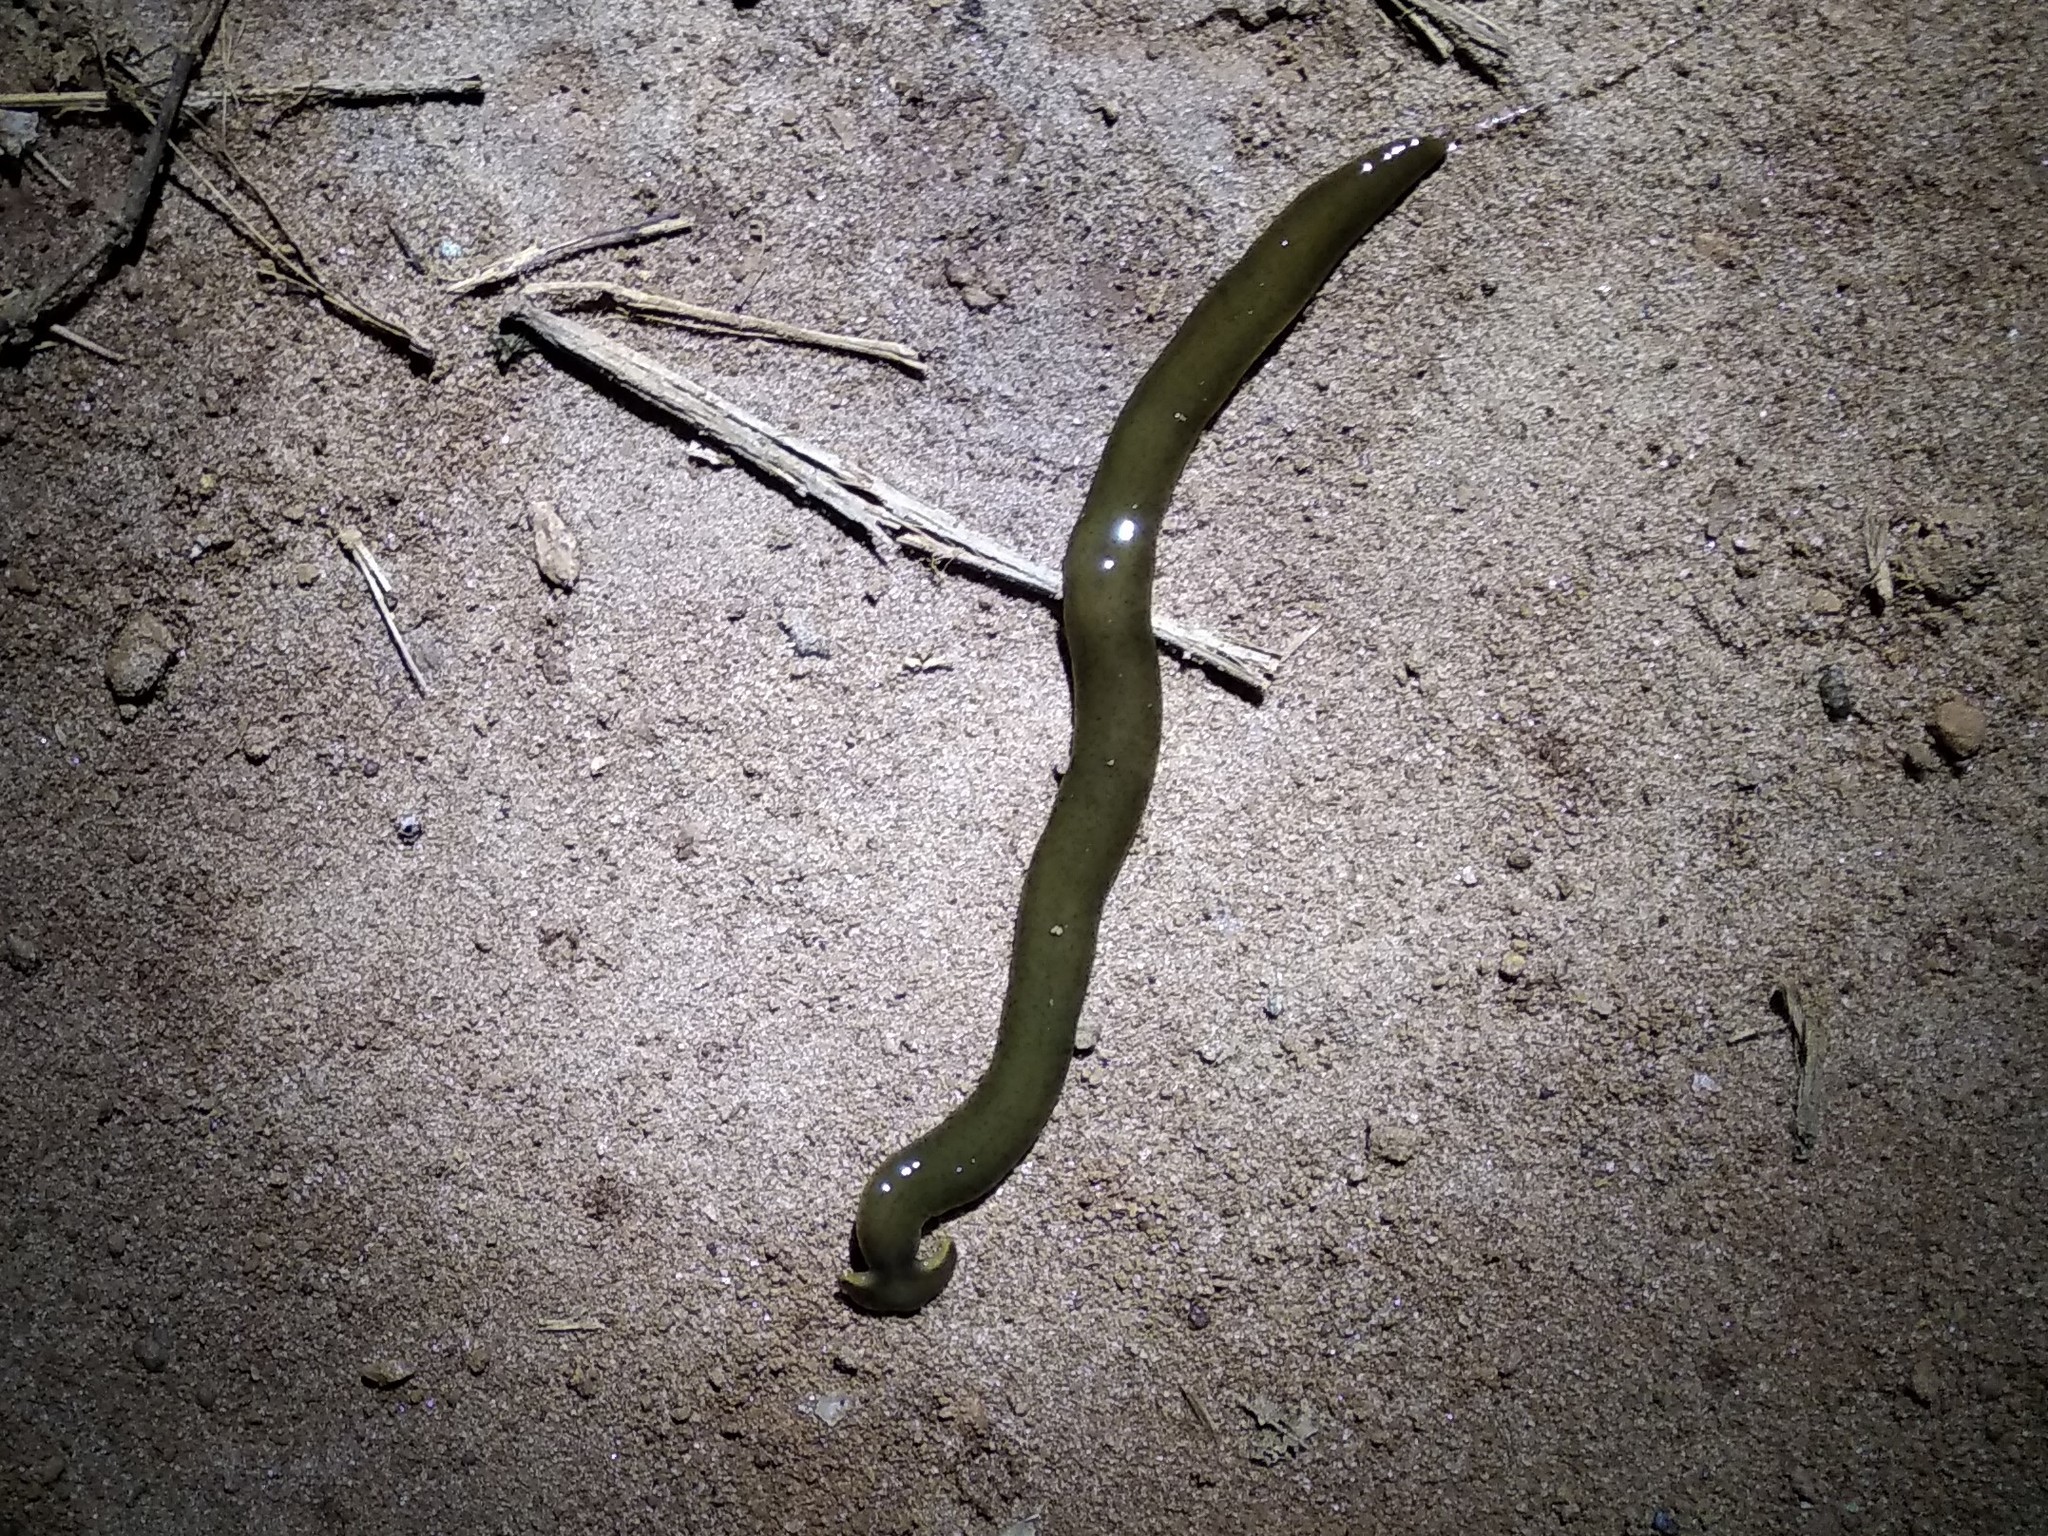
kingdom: Animalia
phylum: Platyhelminthes
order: Tricladida
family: Geoplanidae
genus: Diversibipalium
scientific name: Diversibipalium sylvestre
